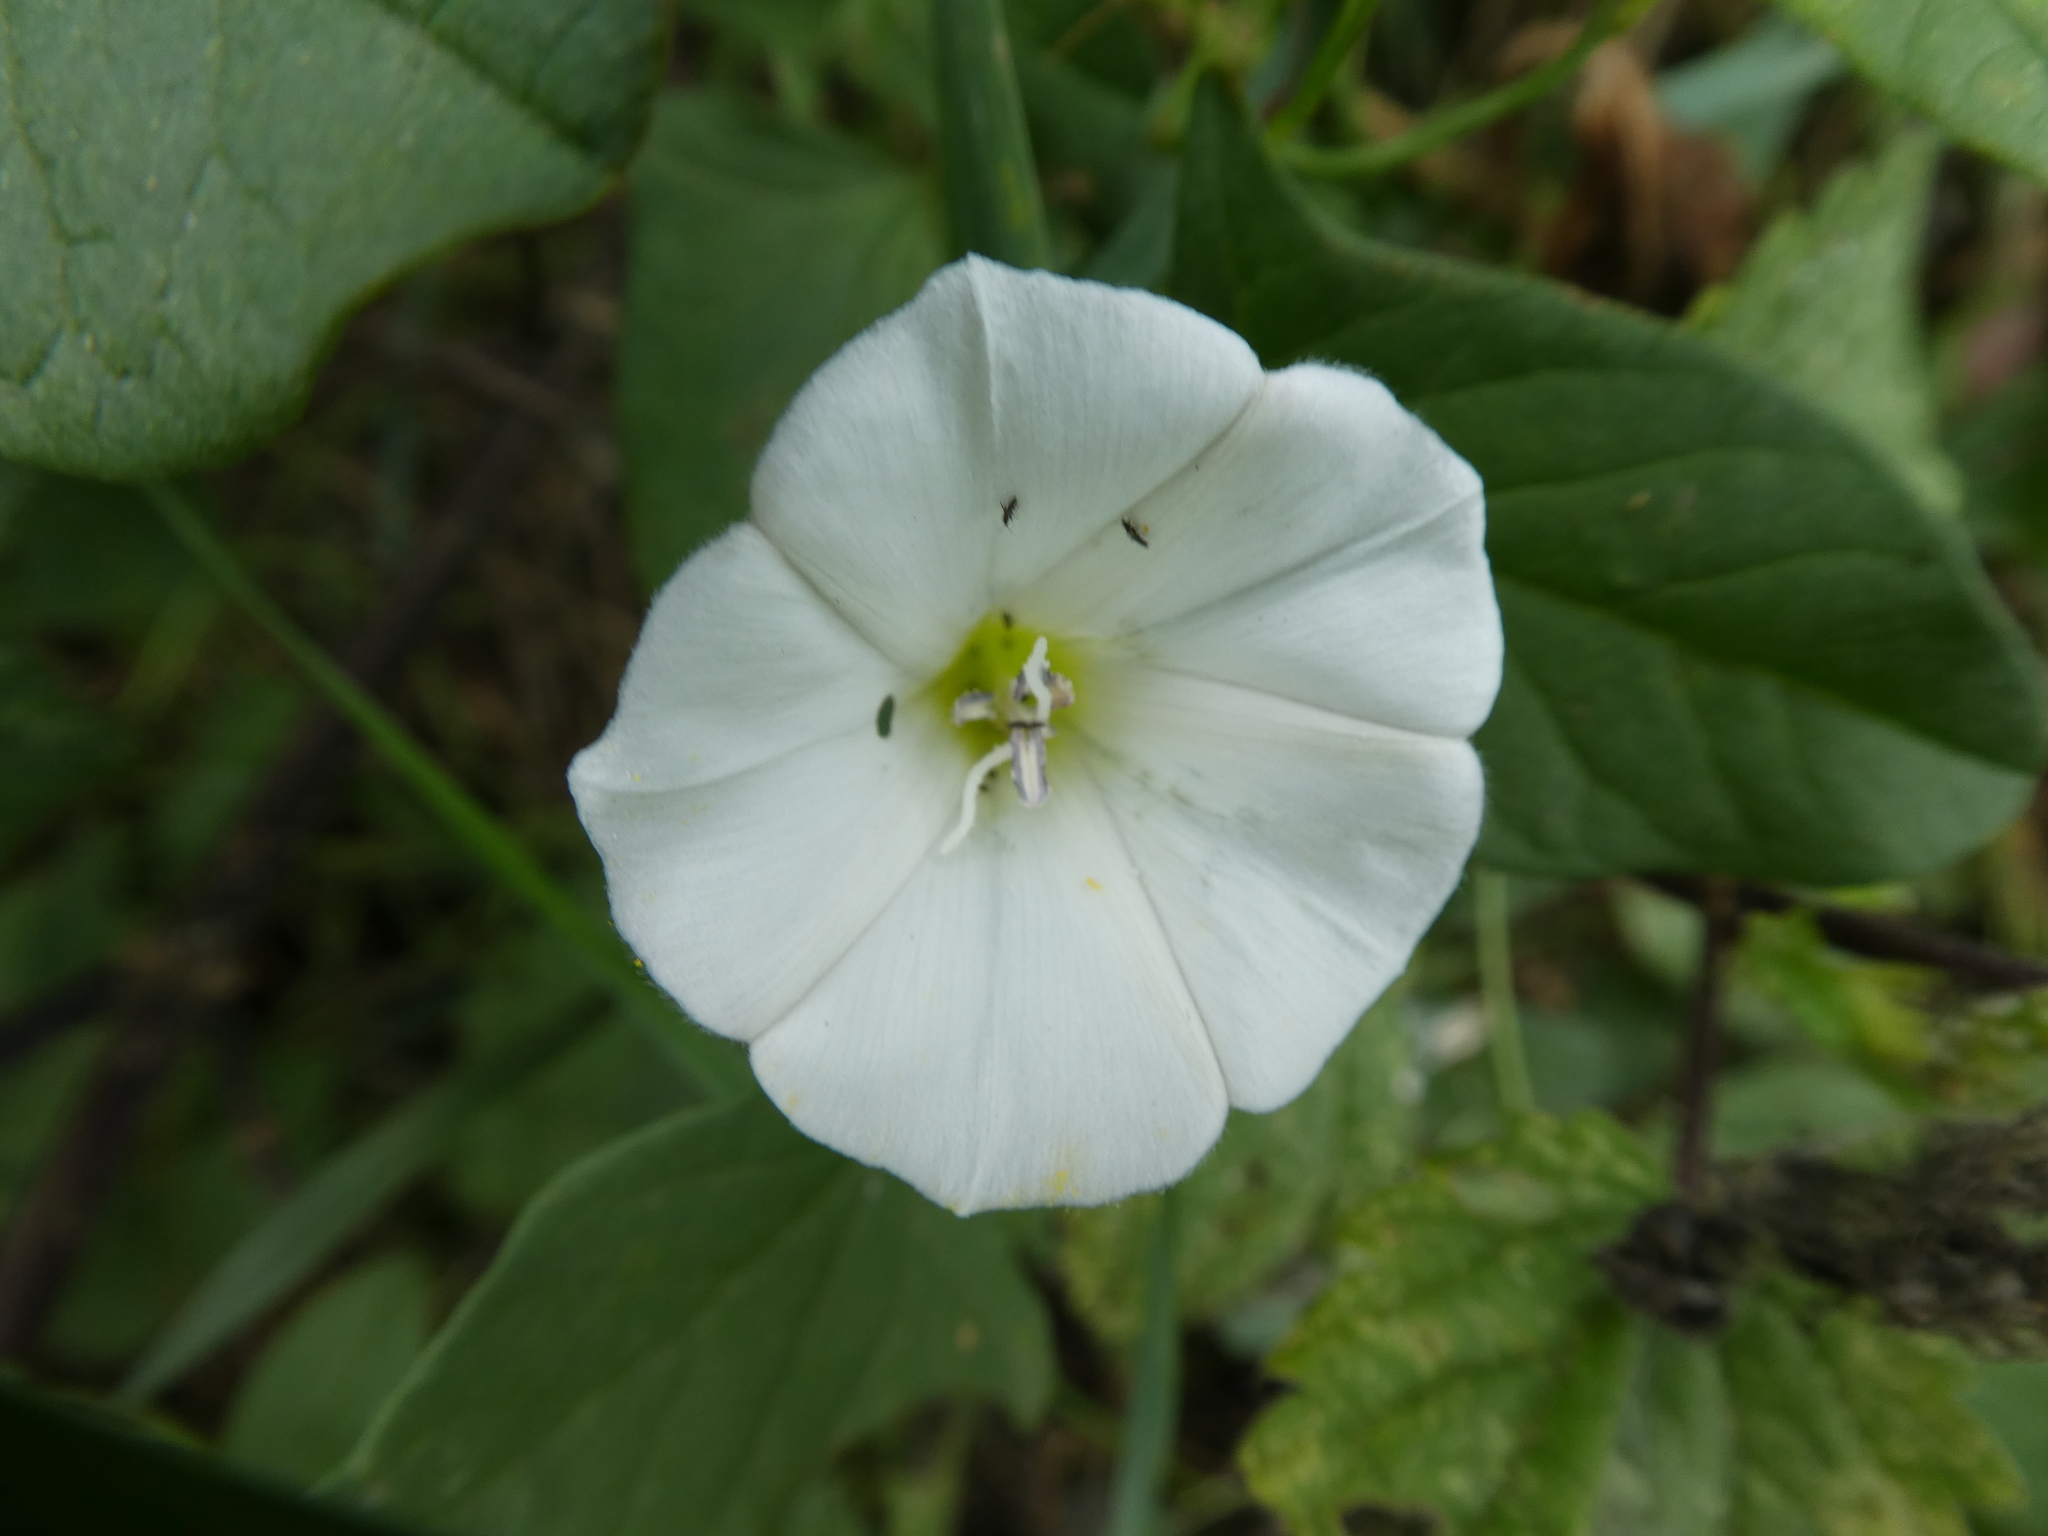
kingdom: Plantae
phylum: Tracheophyta
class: Magnoliopsida
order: Solanales
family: Convolvulaceae
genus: Convolvulus
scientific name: Convolvulus arvensis
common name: Field bindweed
